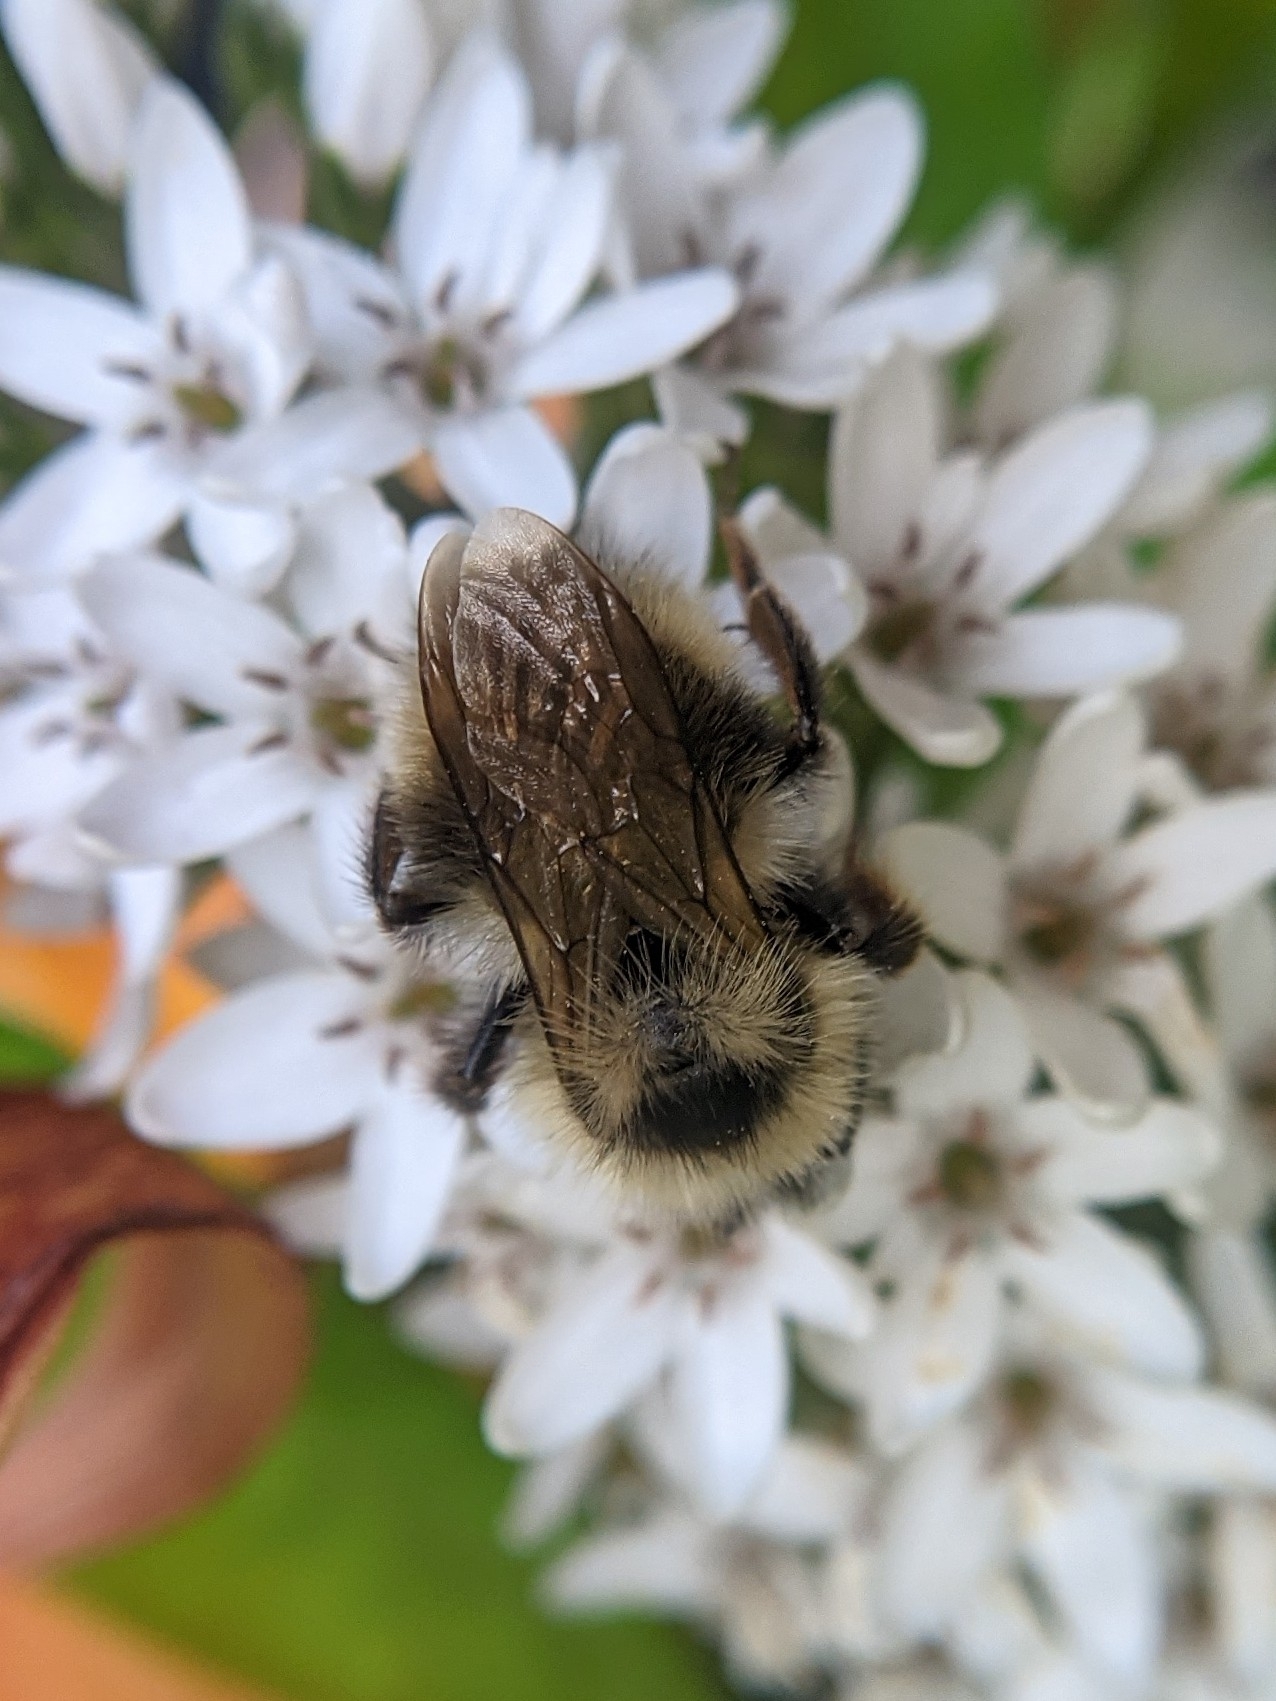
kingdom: Animalia
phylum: Arthropoda
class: Insecta
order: Hymenoptera
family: Apidae
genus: Bombus
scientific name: Bombus flavidus
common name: Fernald cuckoo bumble bee
